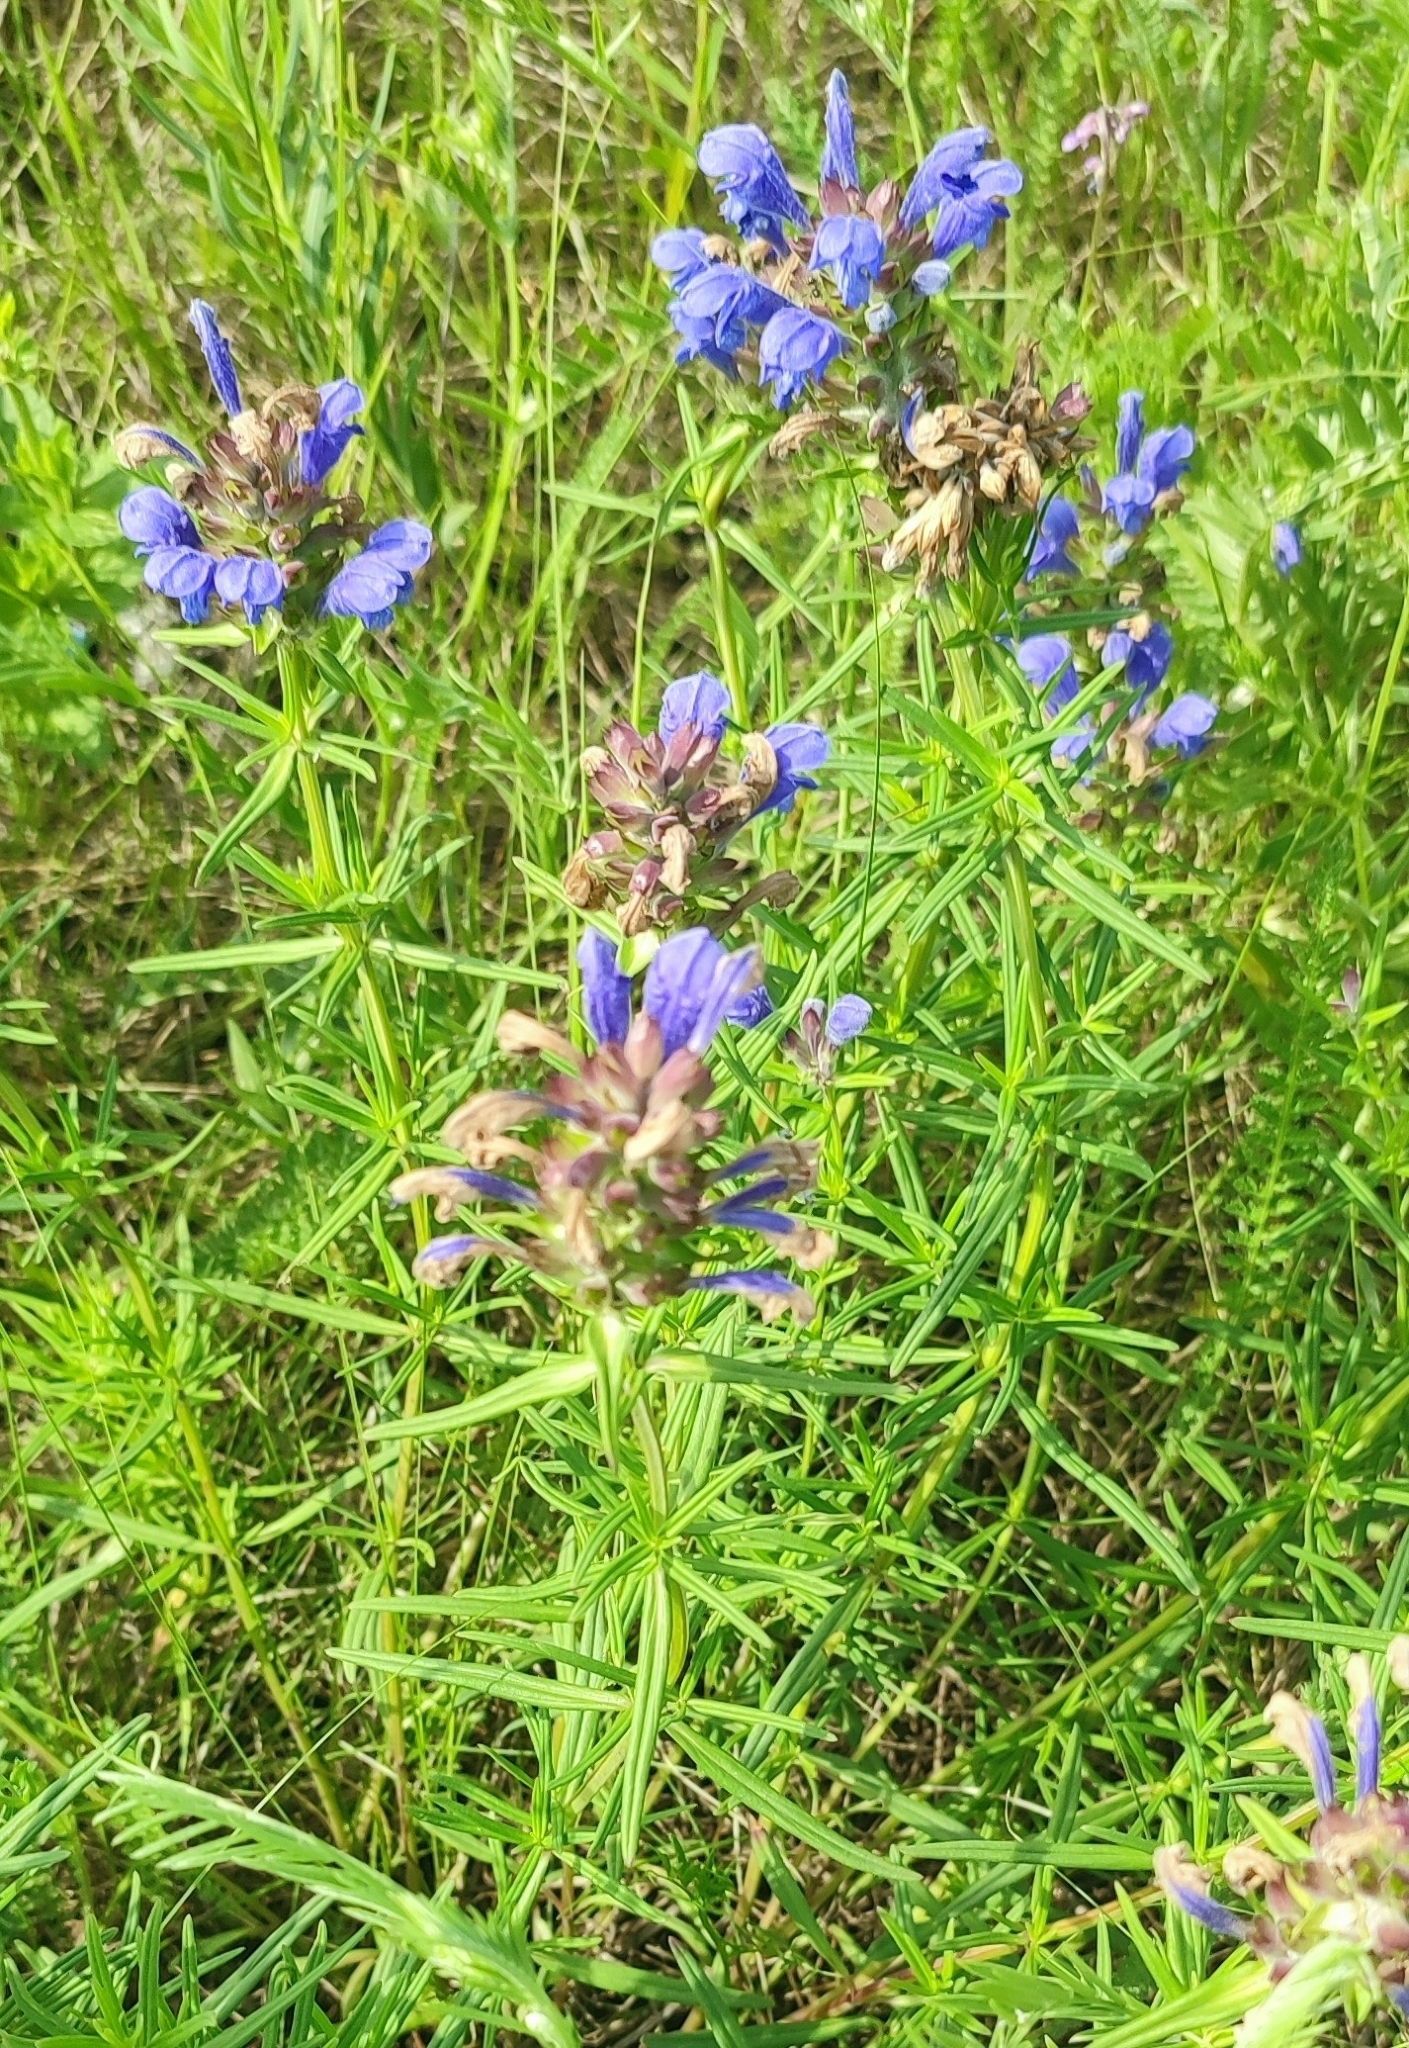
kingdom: Plantae
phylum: Tracheophyta
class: Magnoliopsida
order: Lamiales
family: Lamiaceae
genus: Dracocephalum
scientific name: Dracocephalum ruyschiana
